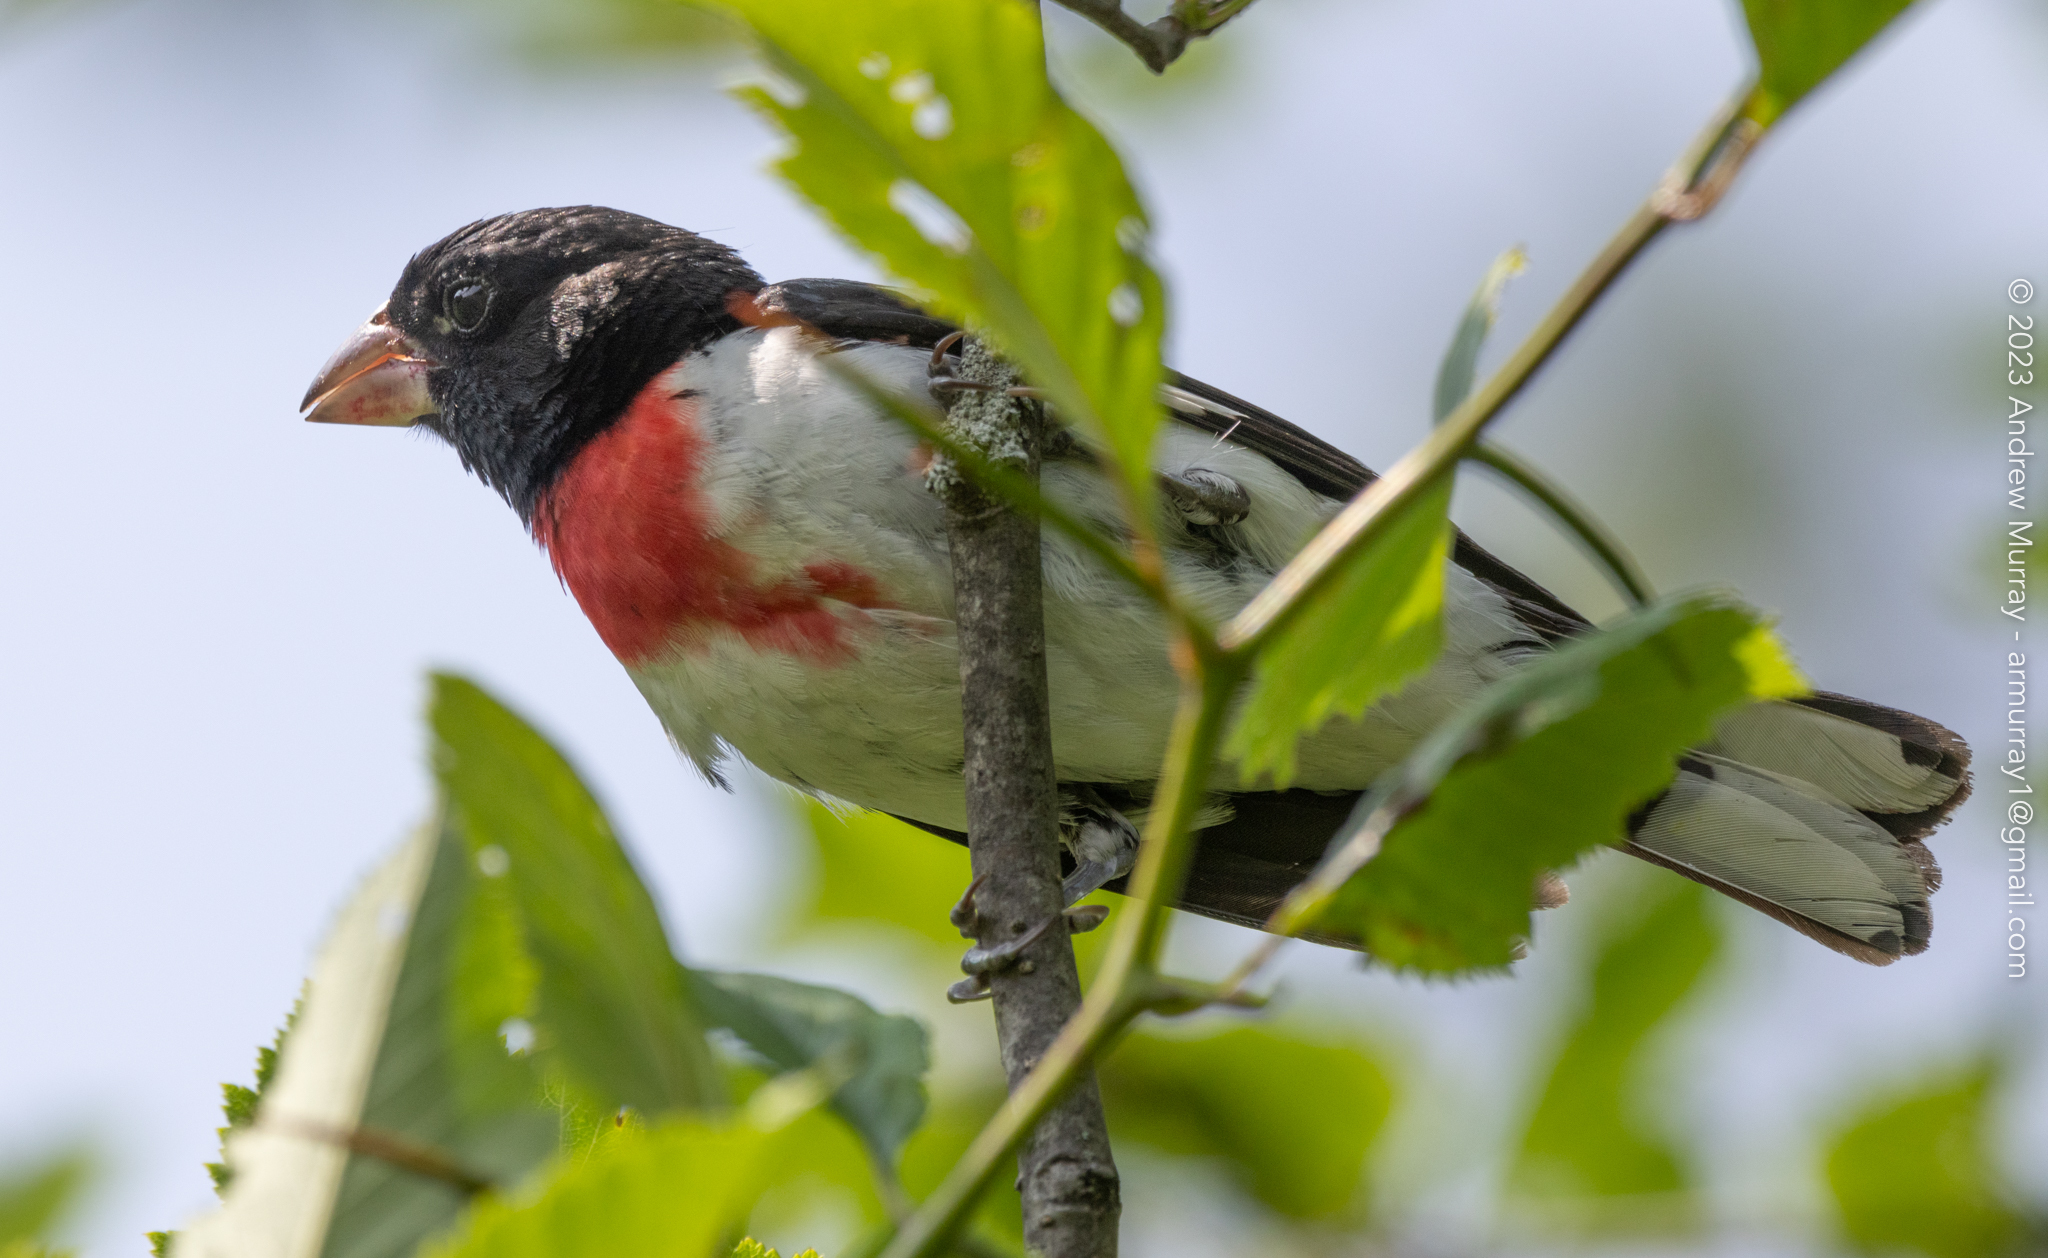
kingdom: Animalia
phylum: Chordata
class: Aves
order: Passeriformes
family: Cardinalidae
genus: Pheucticus
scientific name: Pheucticus ludovicianus
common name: Rose-breasted grosbeak
